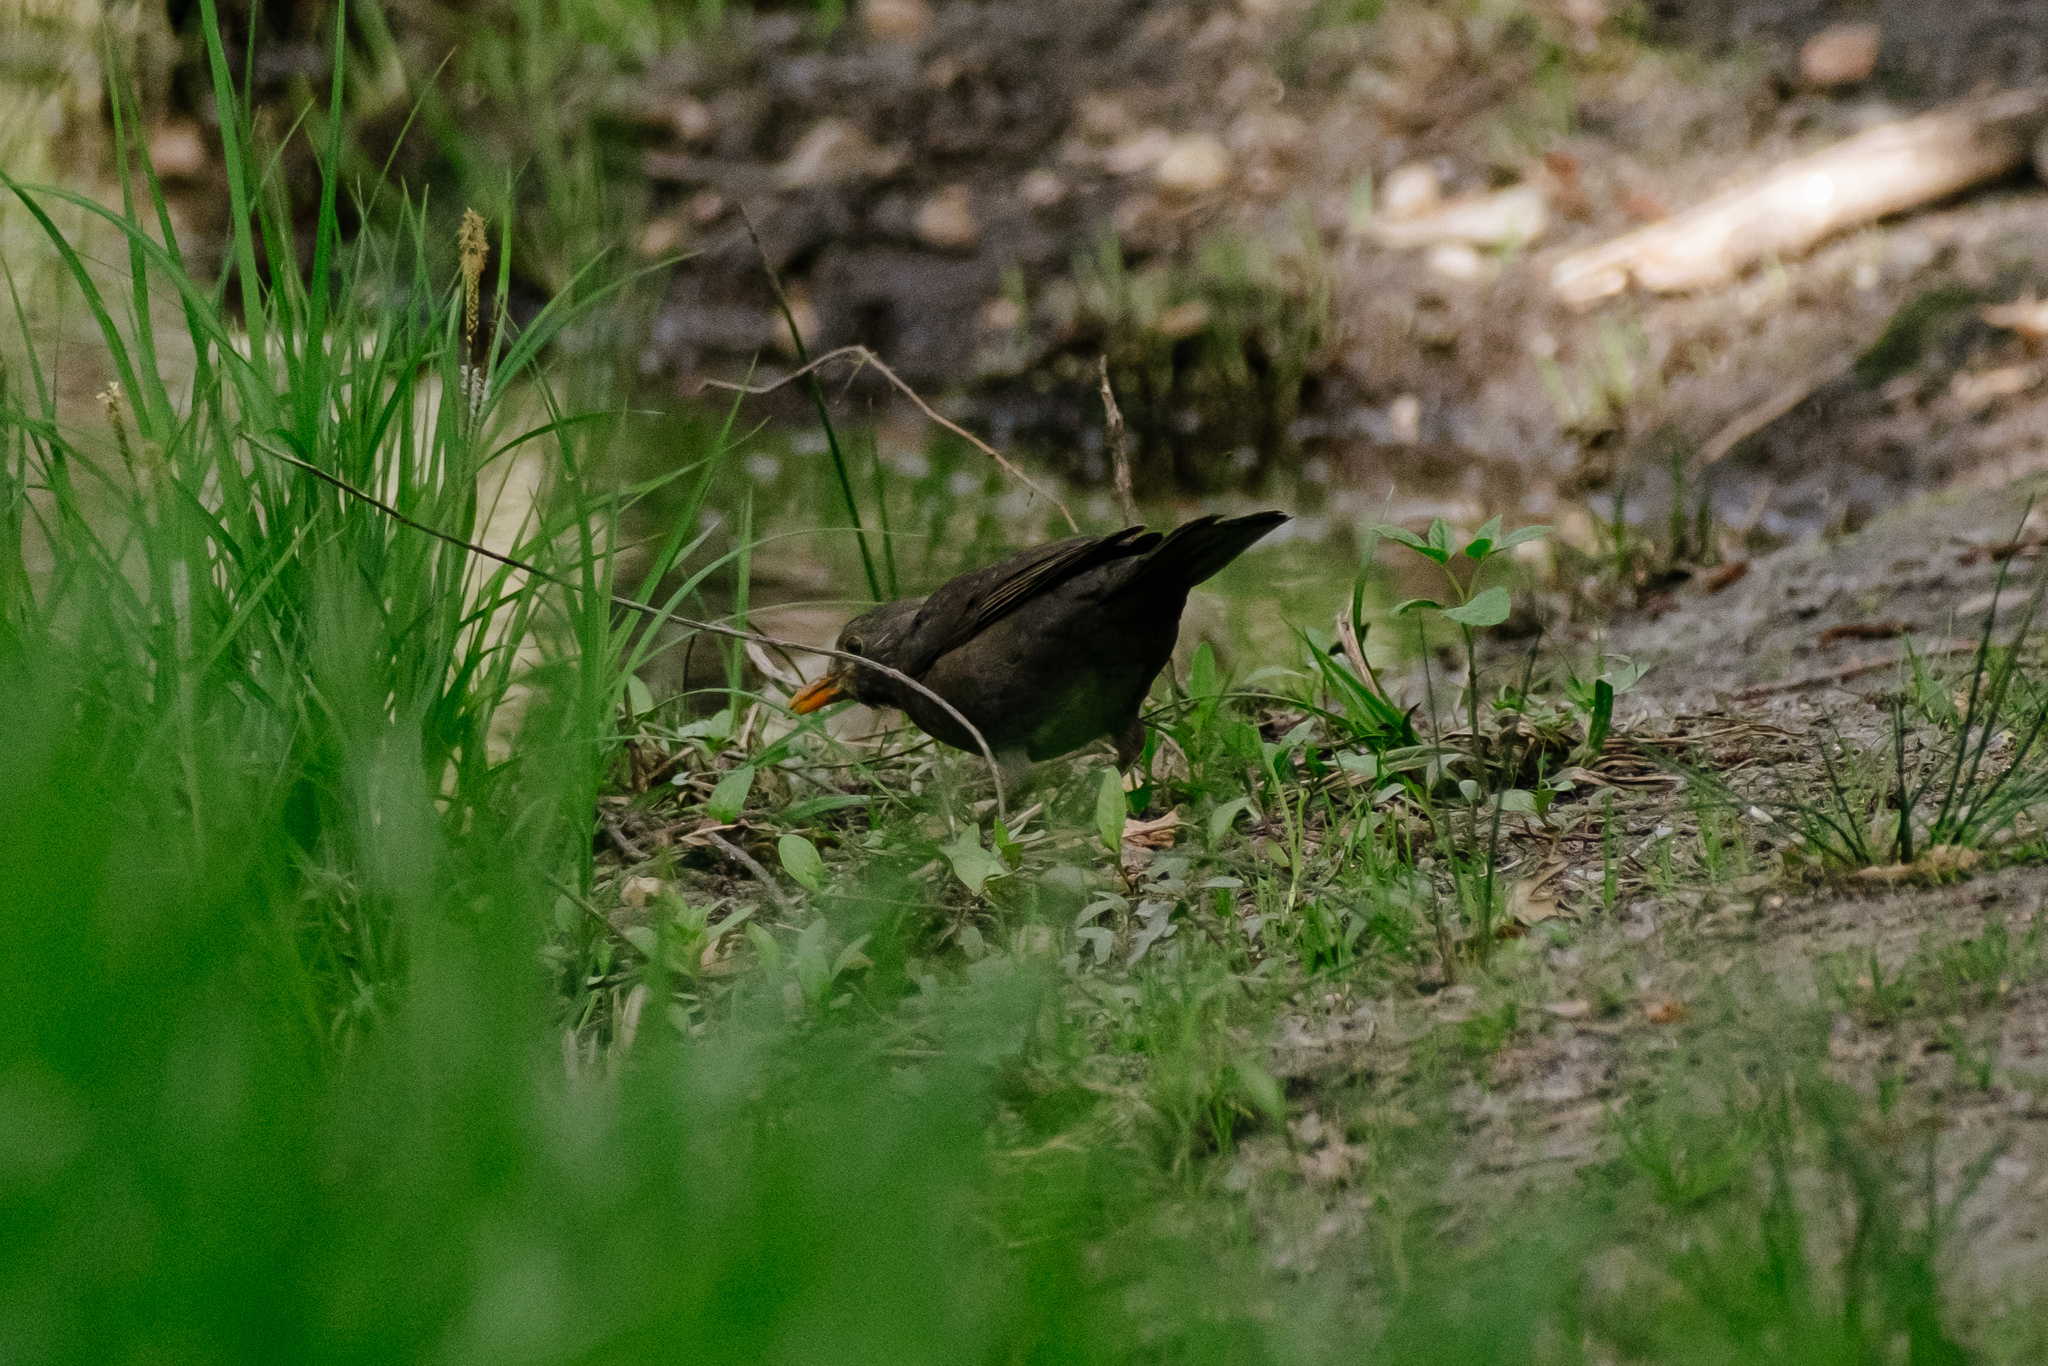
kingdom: Animalia
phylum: Chordata
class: Aves
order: Passeriformes
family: Turdidae
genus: Turdus
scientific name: Turdus merula
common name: Common blackbird
